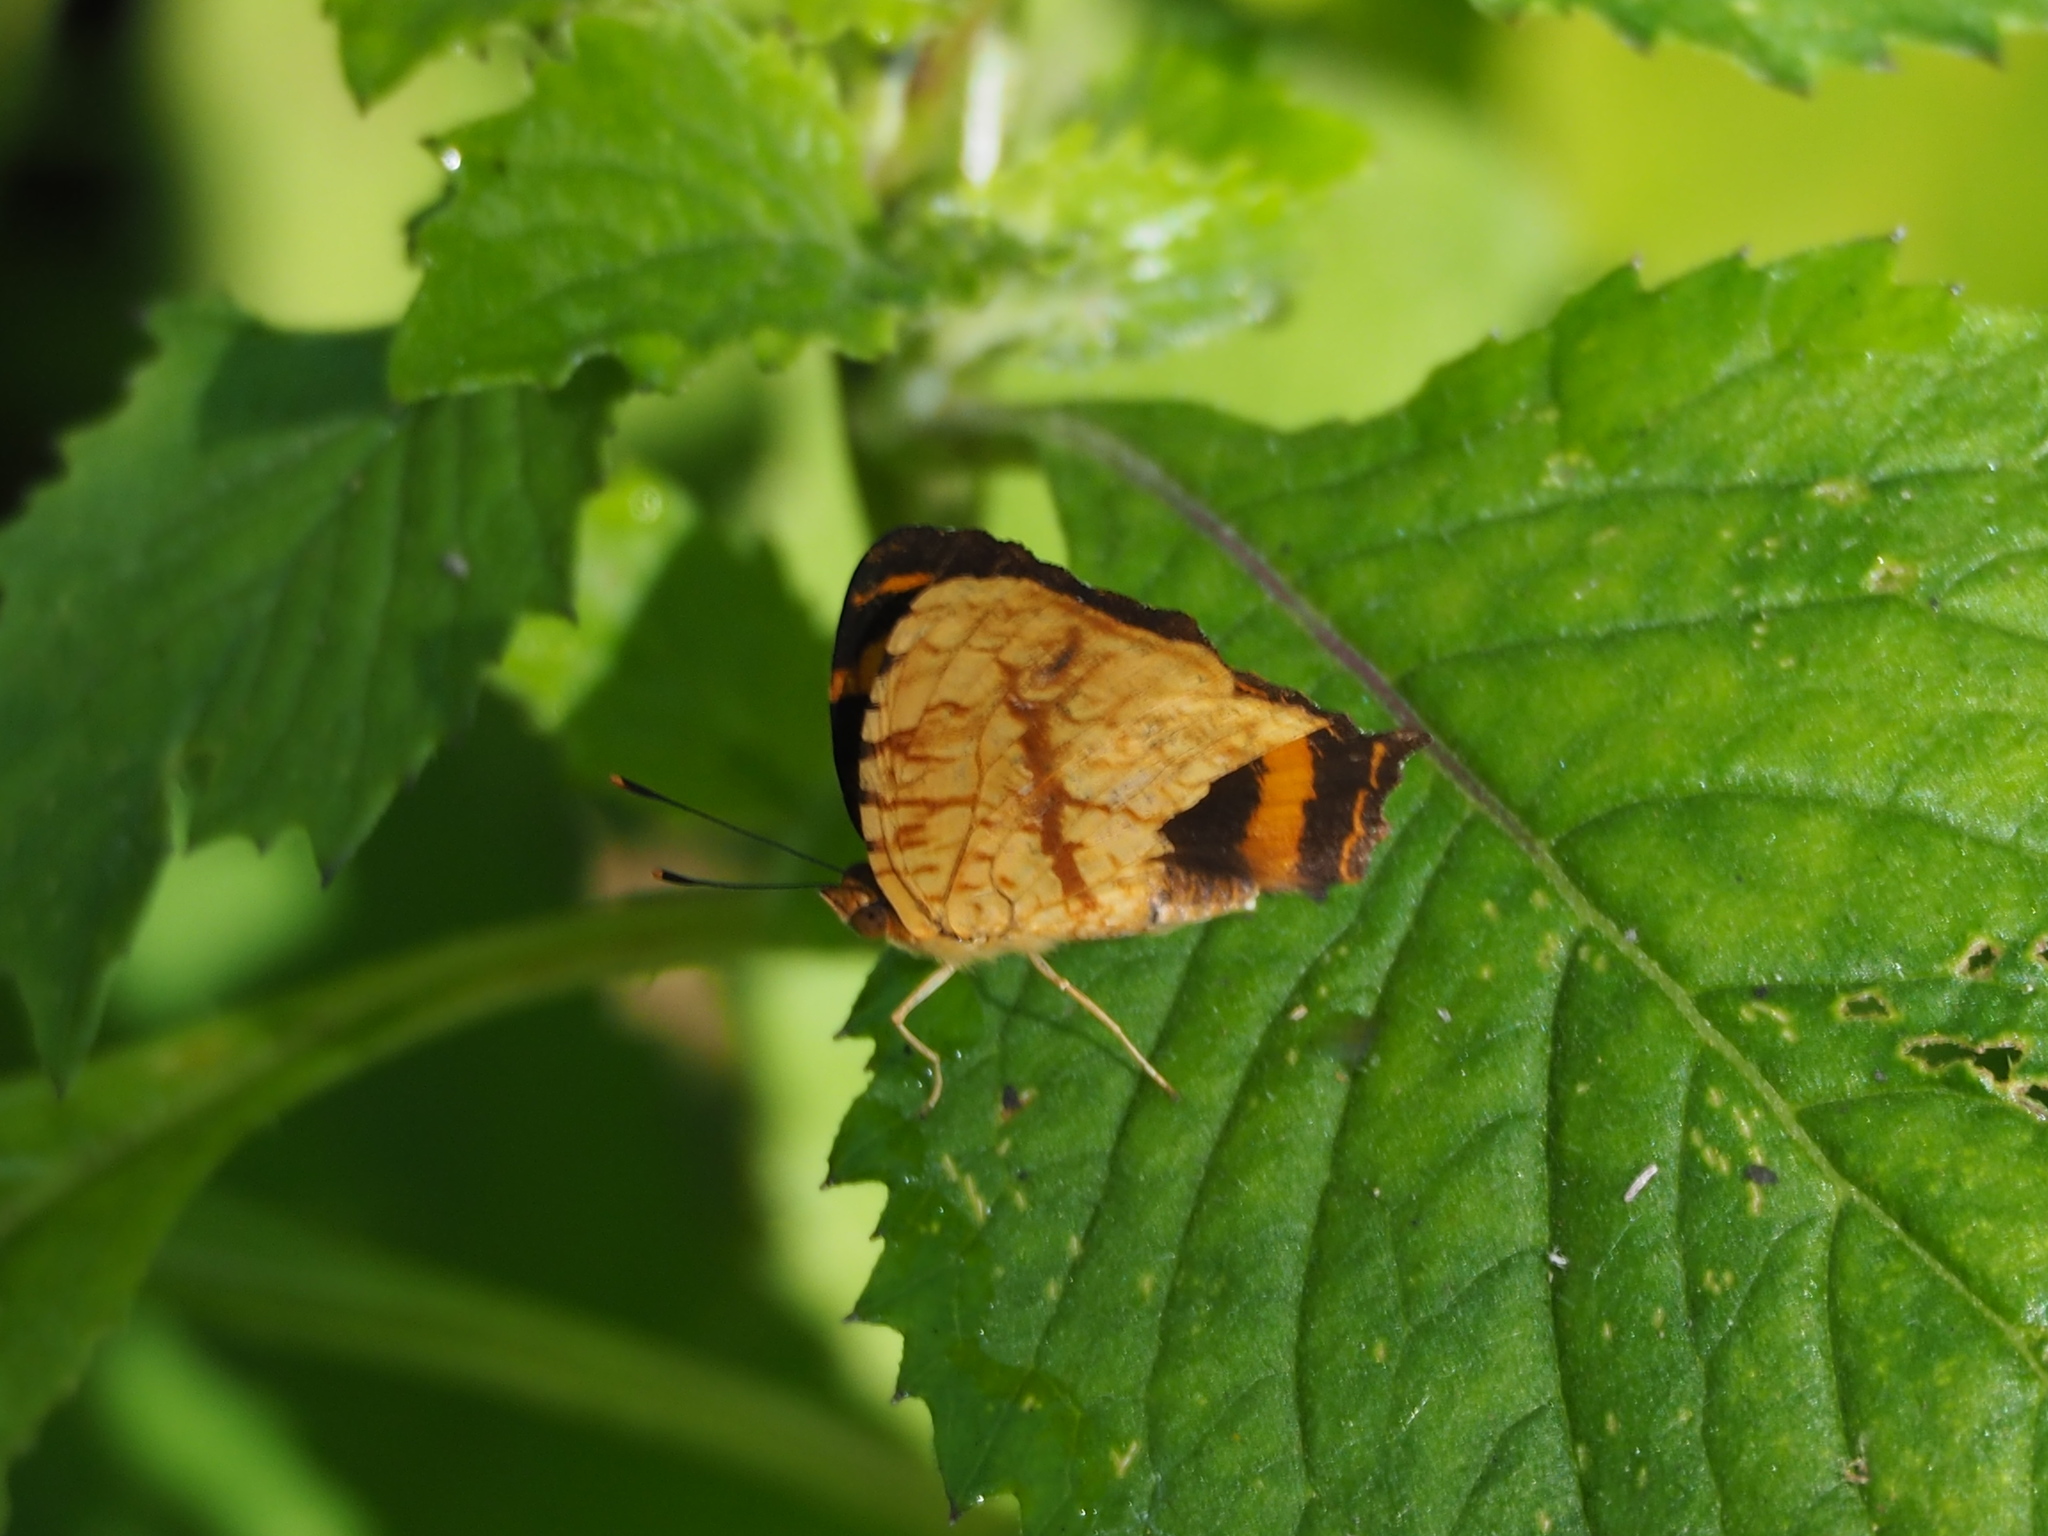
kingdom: Animalia
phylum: Arthropoda
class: Insecta
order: Lepidoptera
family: Nymphalidae
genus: Symbrenthia
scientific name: Symbrenthia hypselis
